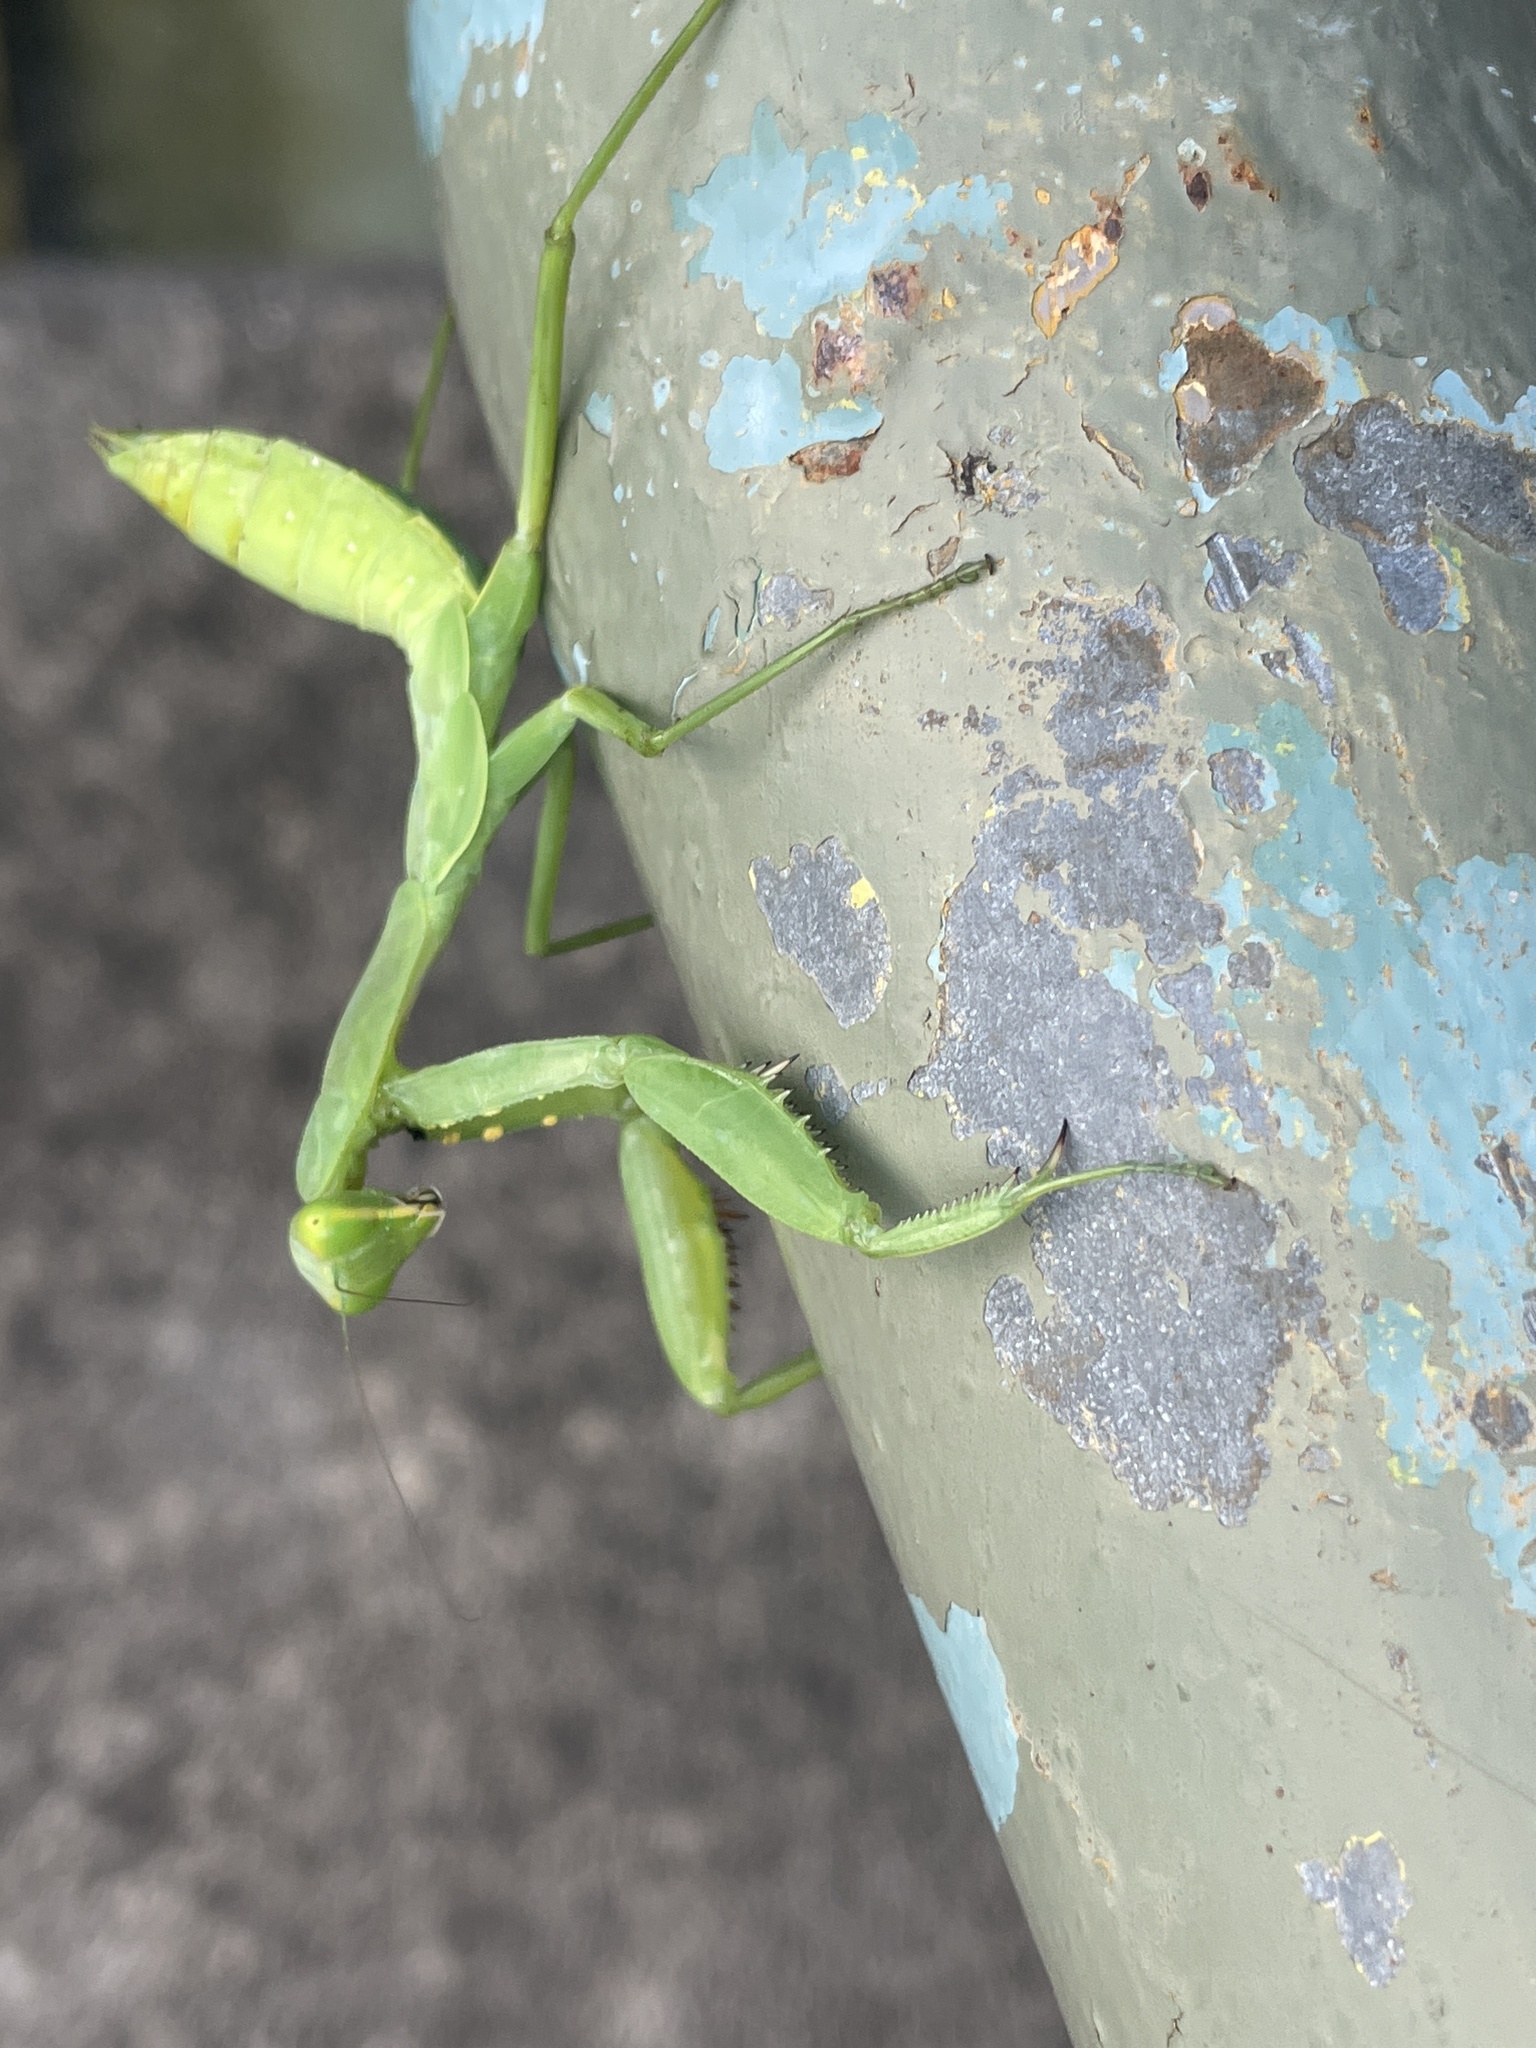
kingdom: Animalia
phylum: Arthropoda
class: Insecta
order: Mantodea
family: Mantidae
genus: Hierodula
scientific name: Hierodula patellifera
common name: Asian mantis
